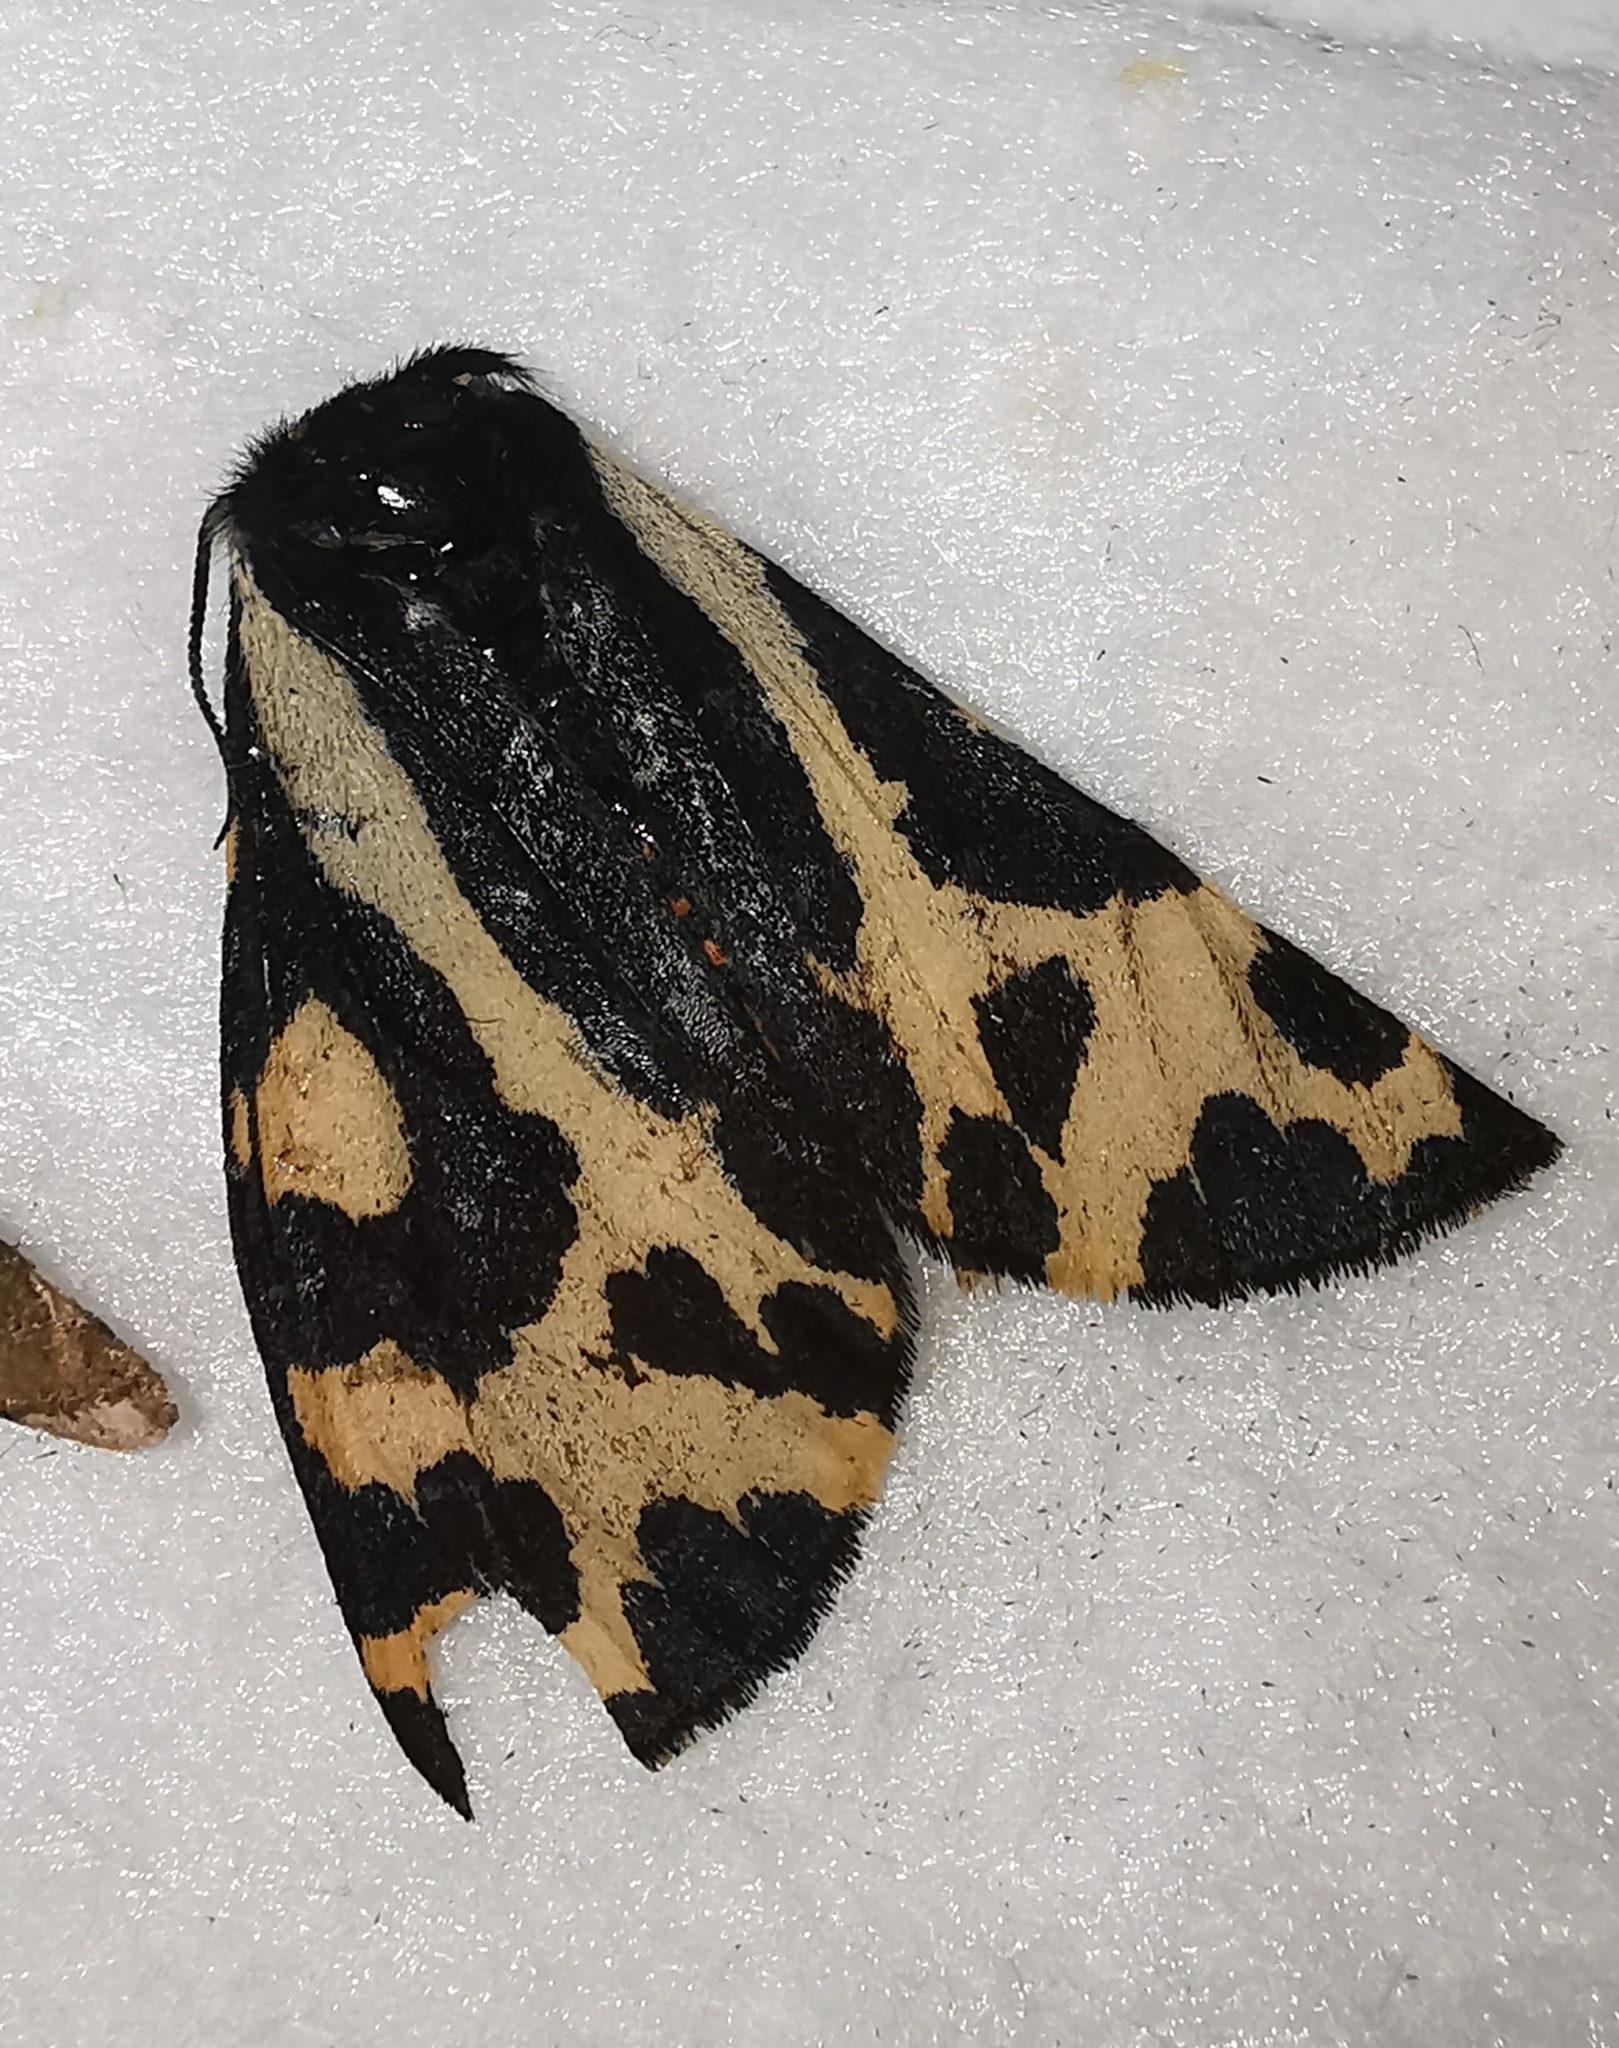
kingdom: Animalia
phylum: Arthropoda
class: Insecta
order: Lepidoptera
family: Erebidae
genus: Parasemia
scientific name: Parasemia plantaginis
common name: Wood tiger
